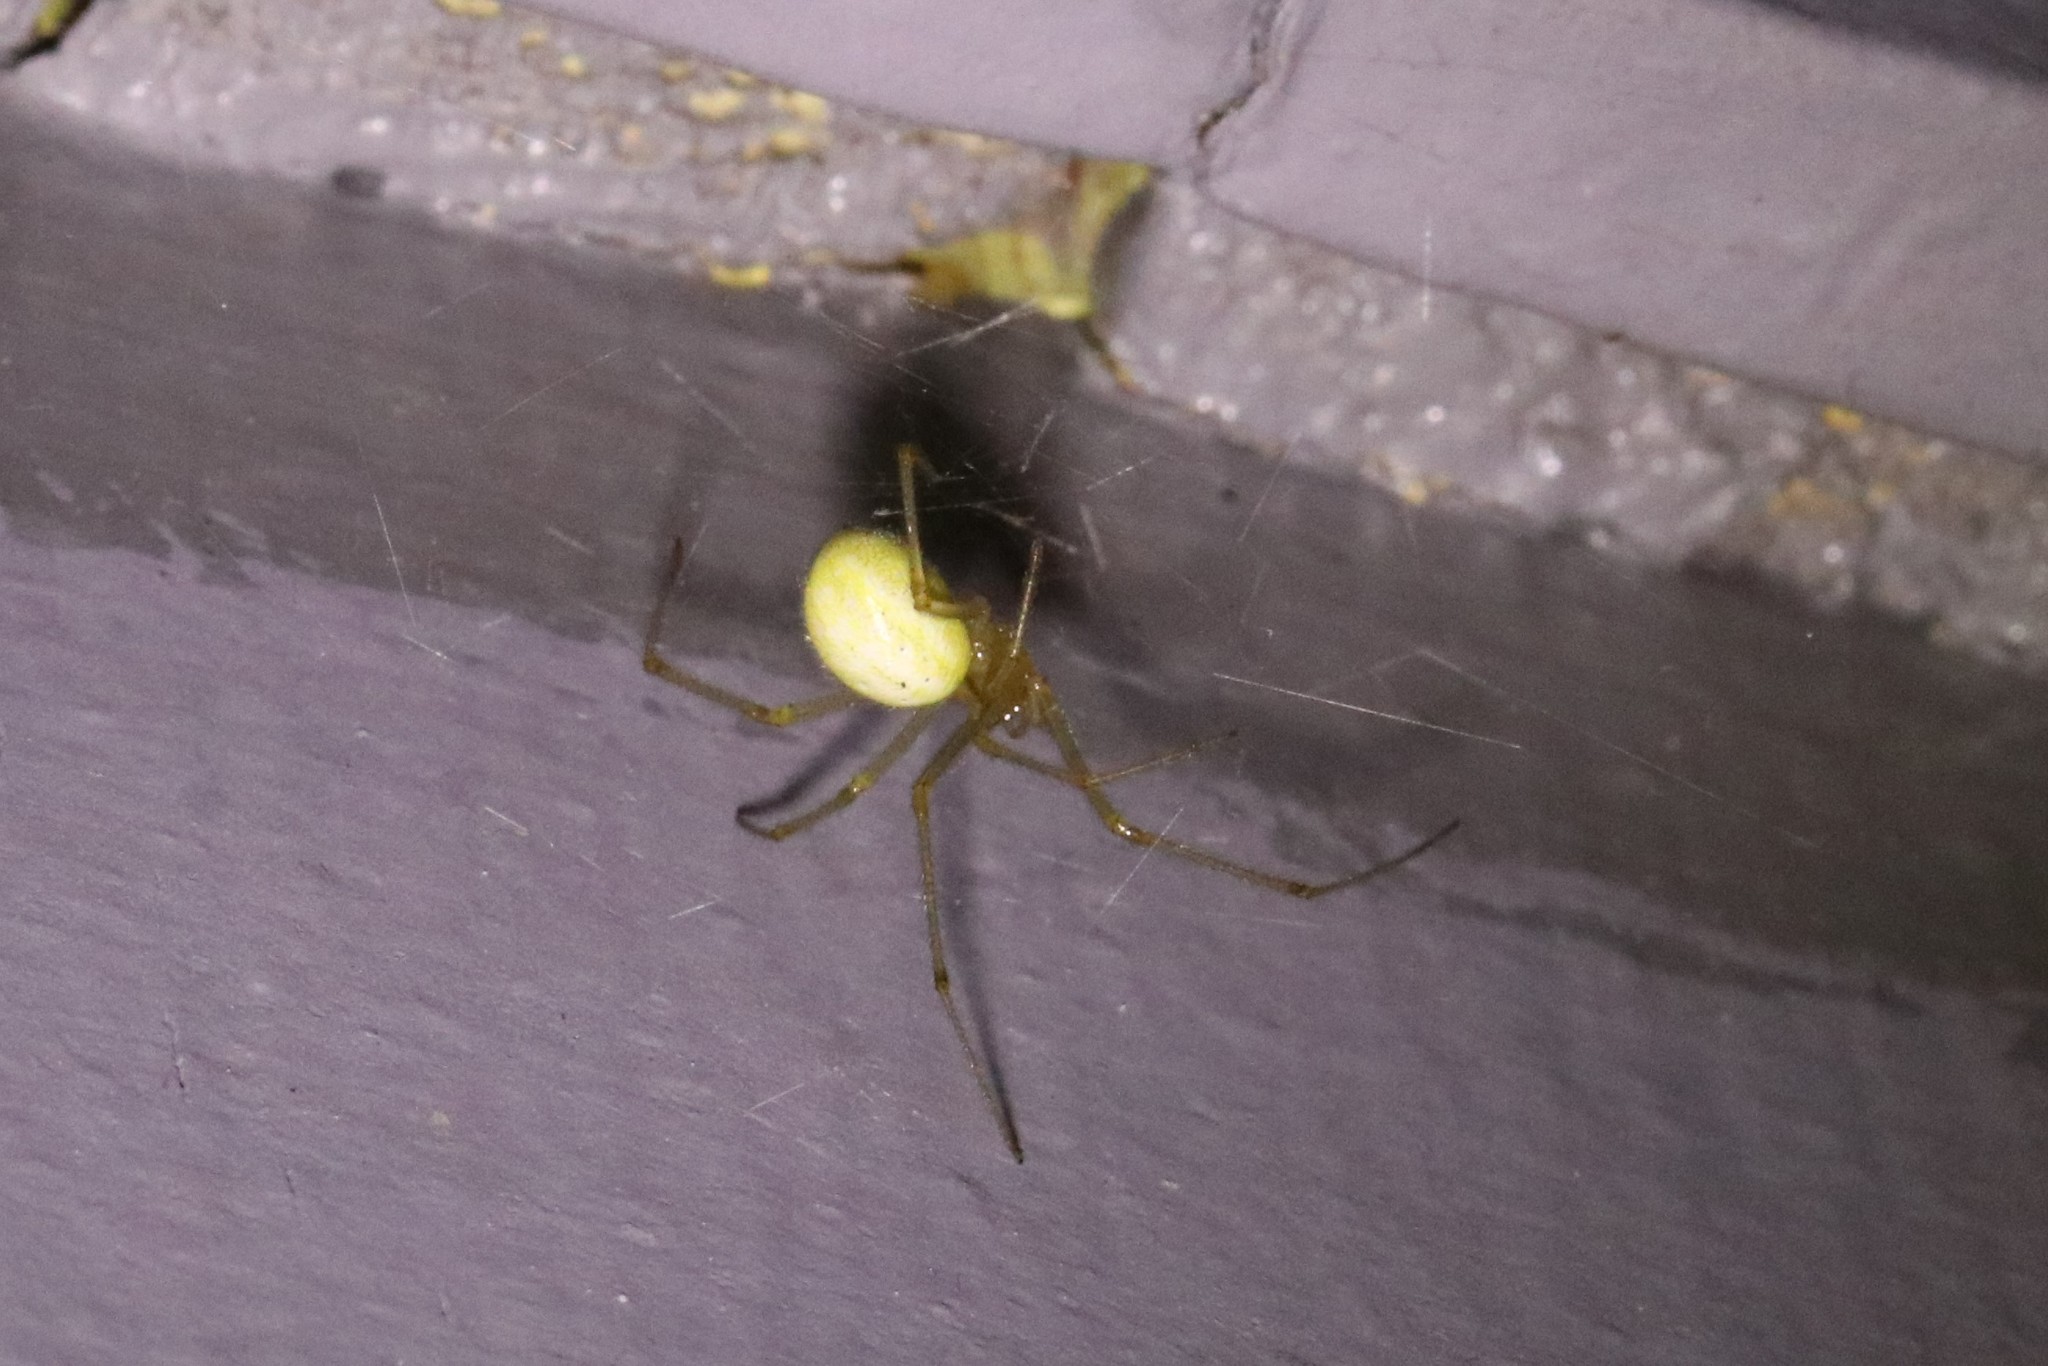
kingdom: Animalia
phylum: Arthropoda
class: Arachnida
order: Araneae
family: Theridiidae
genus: Enoplognatha
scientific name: Enoplognatha ovata
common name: Common candy-striped spider
